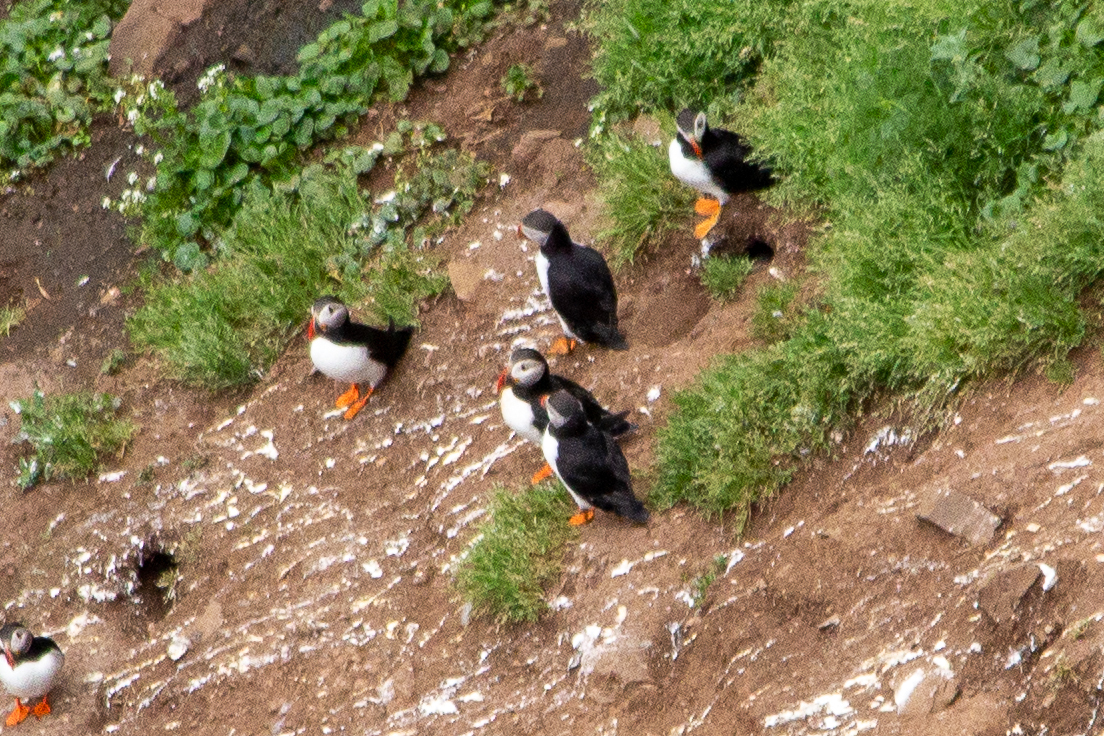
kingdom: Animalia
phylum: Chordata
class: Aves
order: Charadriiformes
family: Alcidae
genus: Fratercula
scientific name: Fratercula arctica
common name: Atlantic puffin
